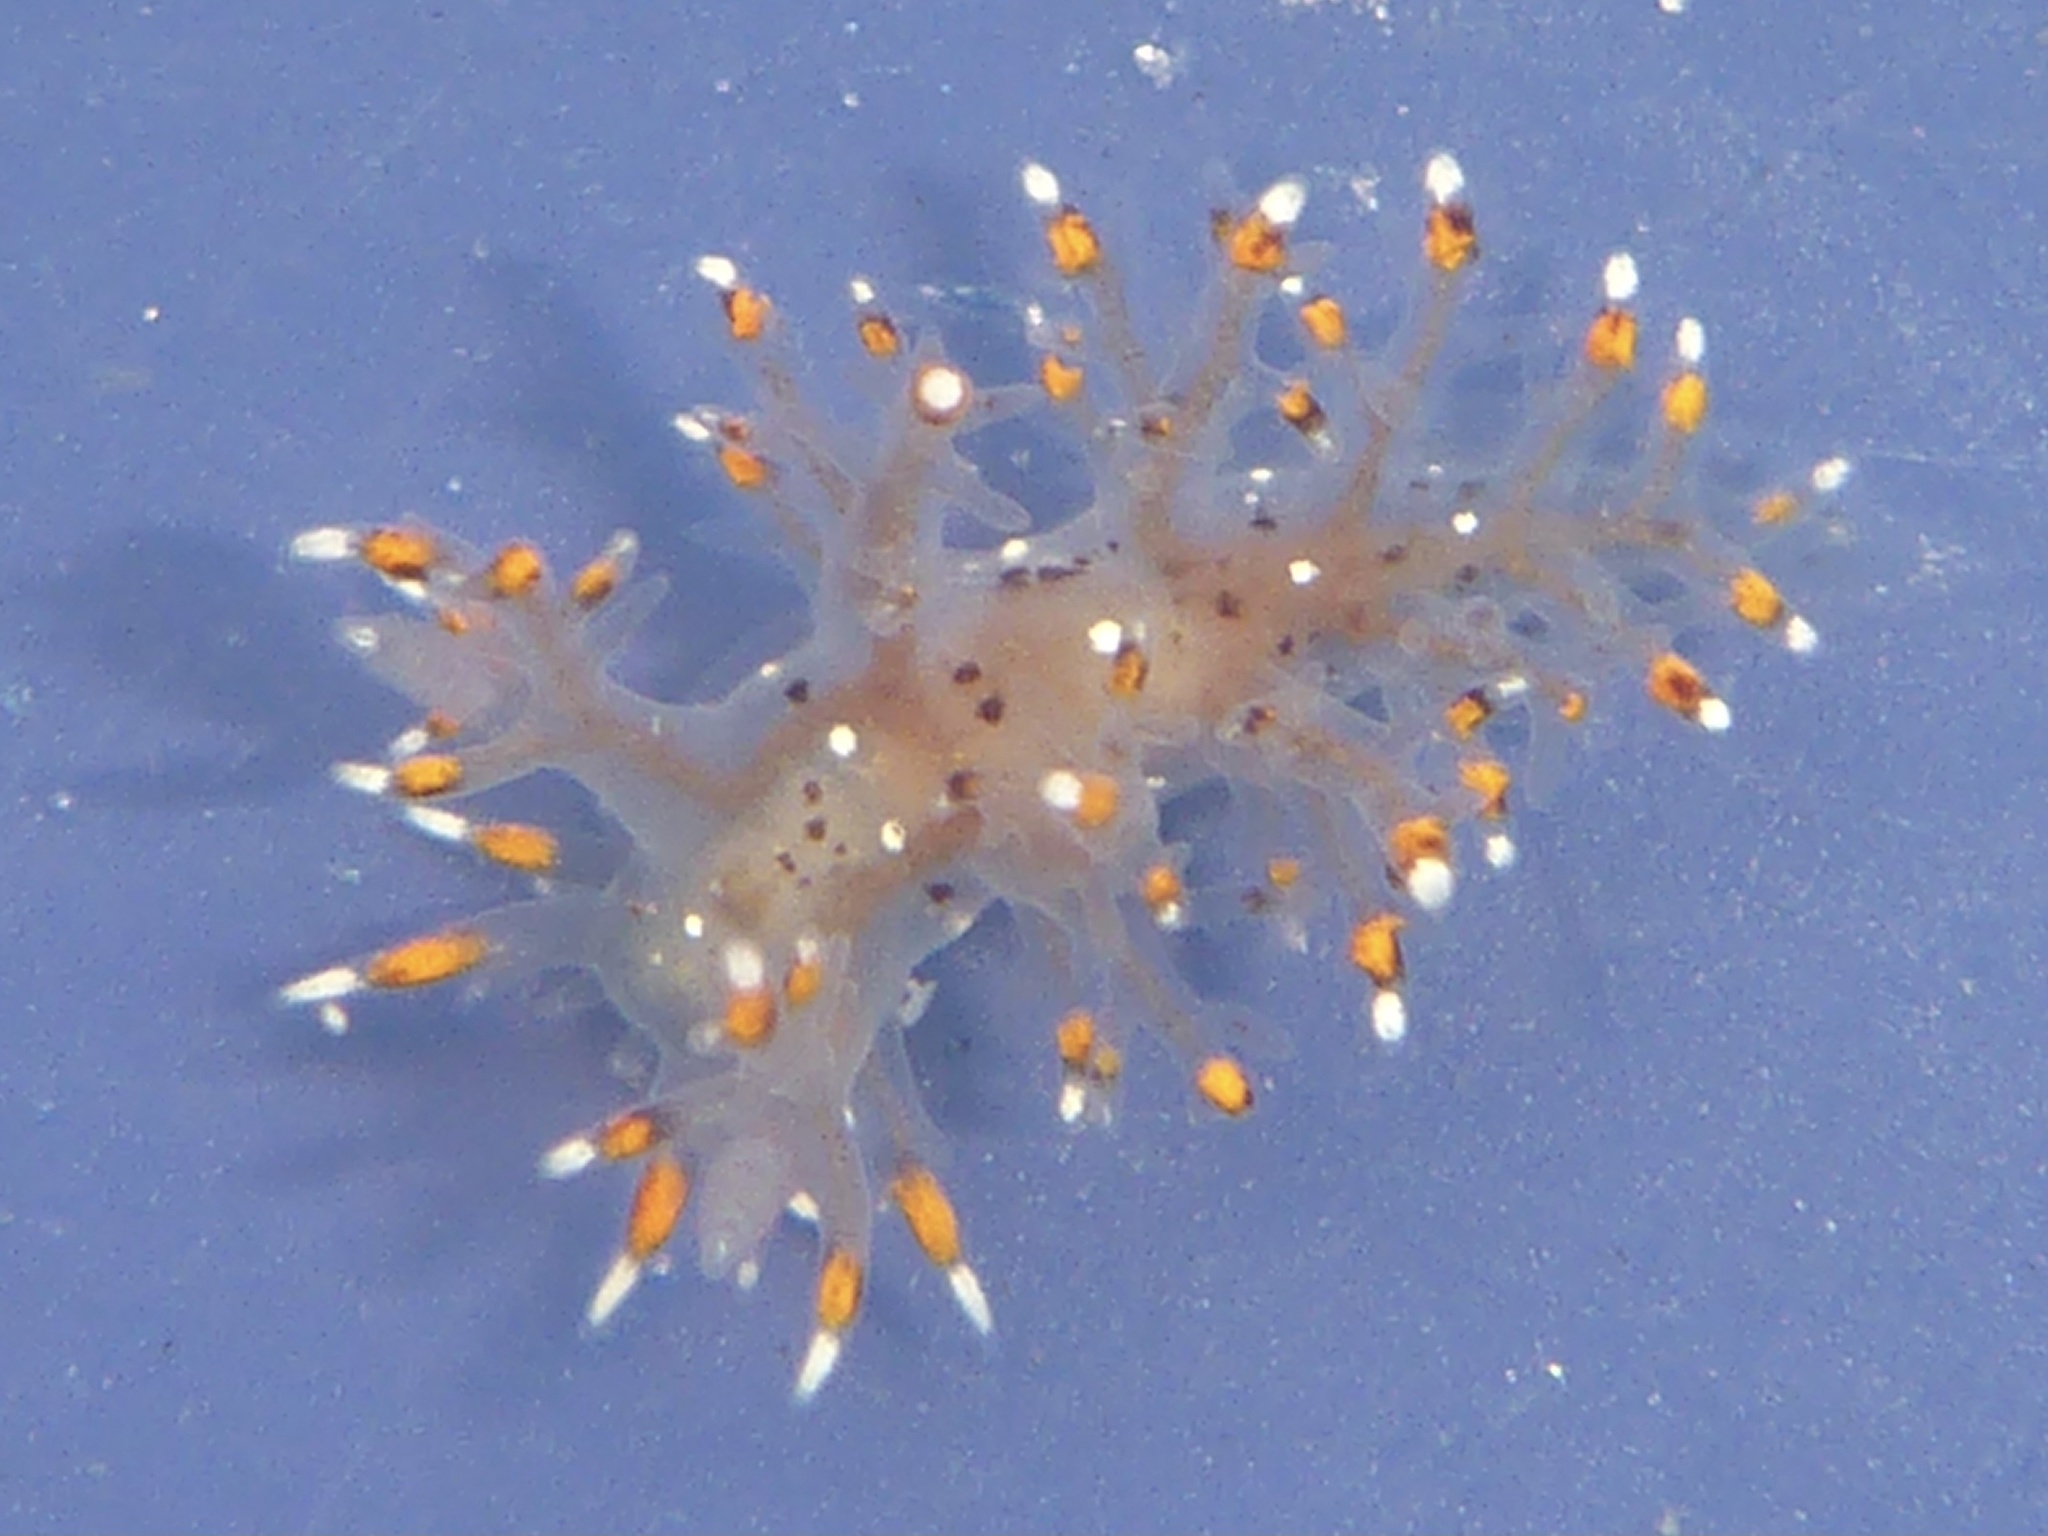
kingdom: Animalia
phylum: Mollusca
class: Gastropoda
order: Nudibranchia
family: Dendronotidae
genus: Dendronotus
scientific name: Dendronotus iris
